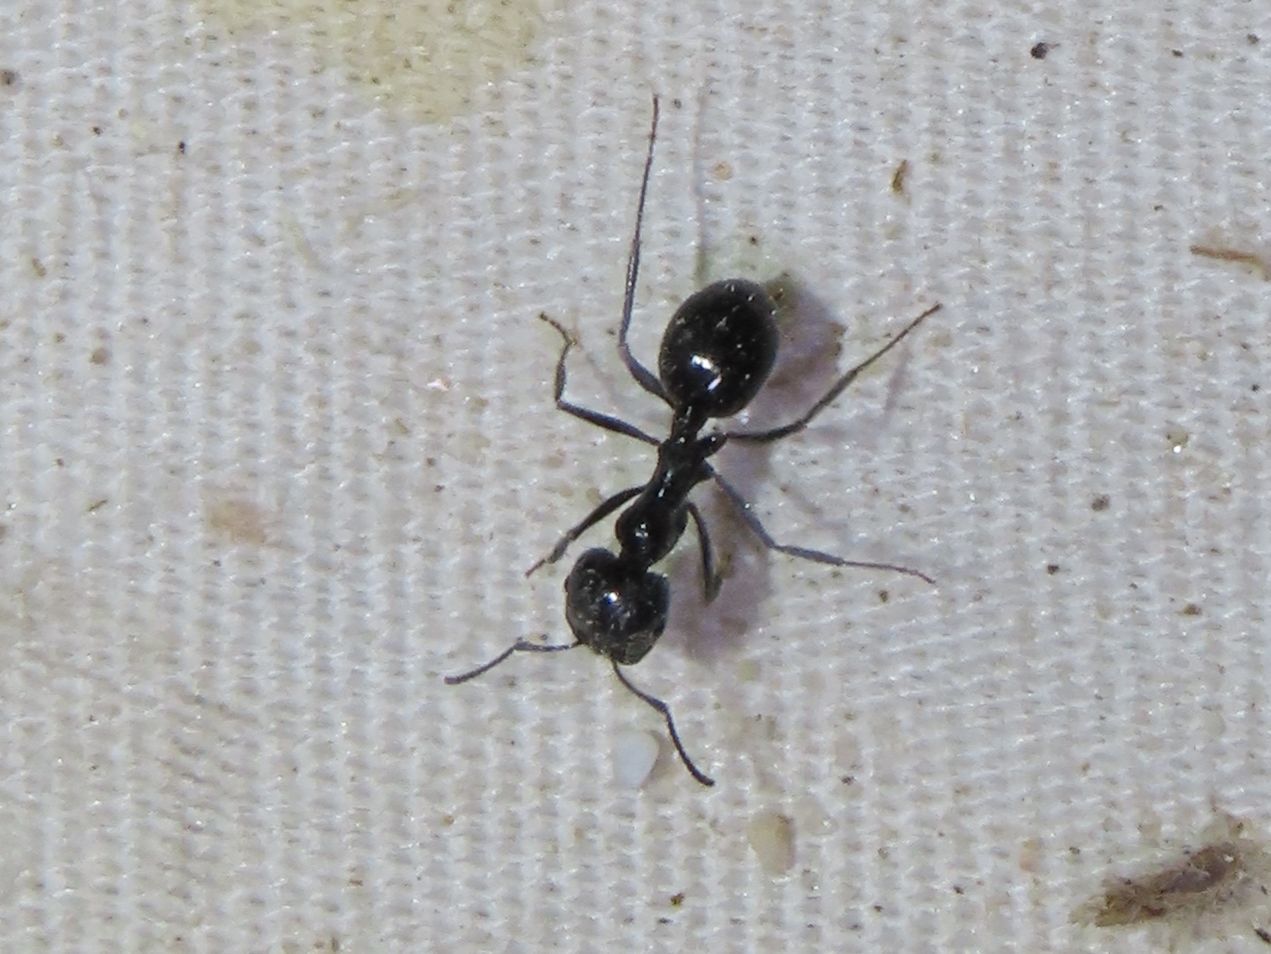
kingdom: Animalia
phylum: Arthropoda
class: Insecta
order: Hymenoptera
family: Formicidae
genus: Messor
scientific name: Messor pergandei
